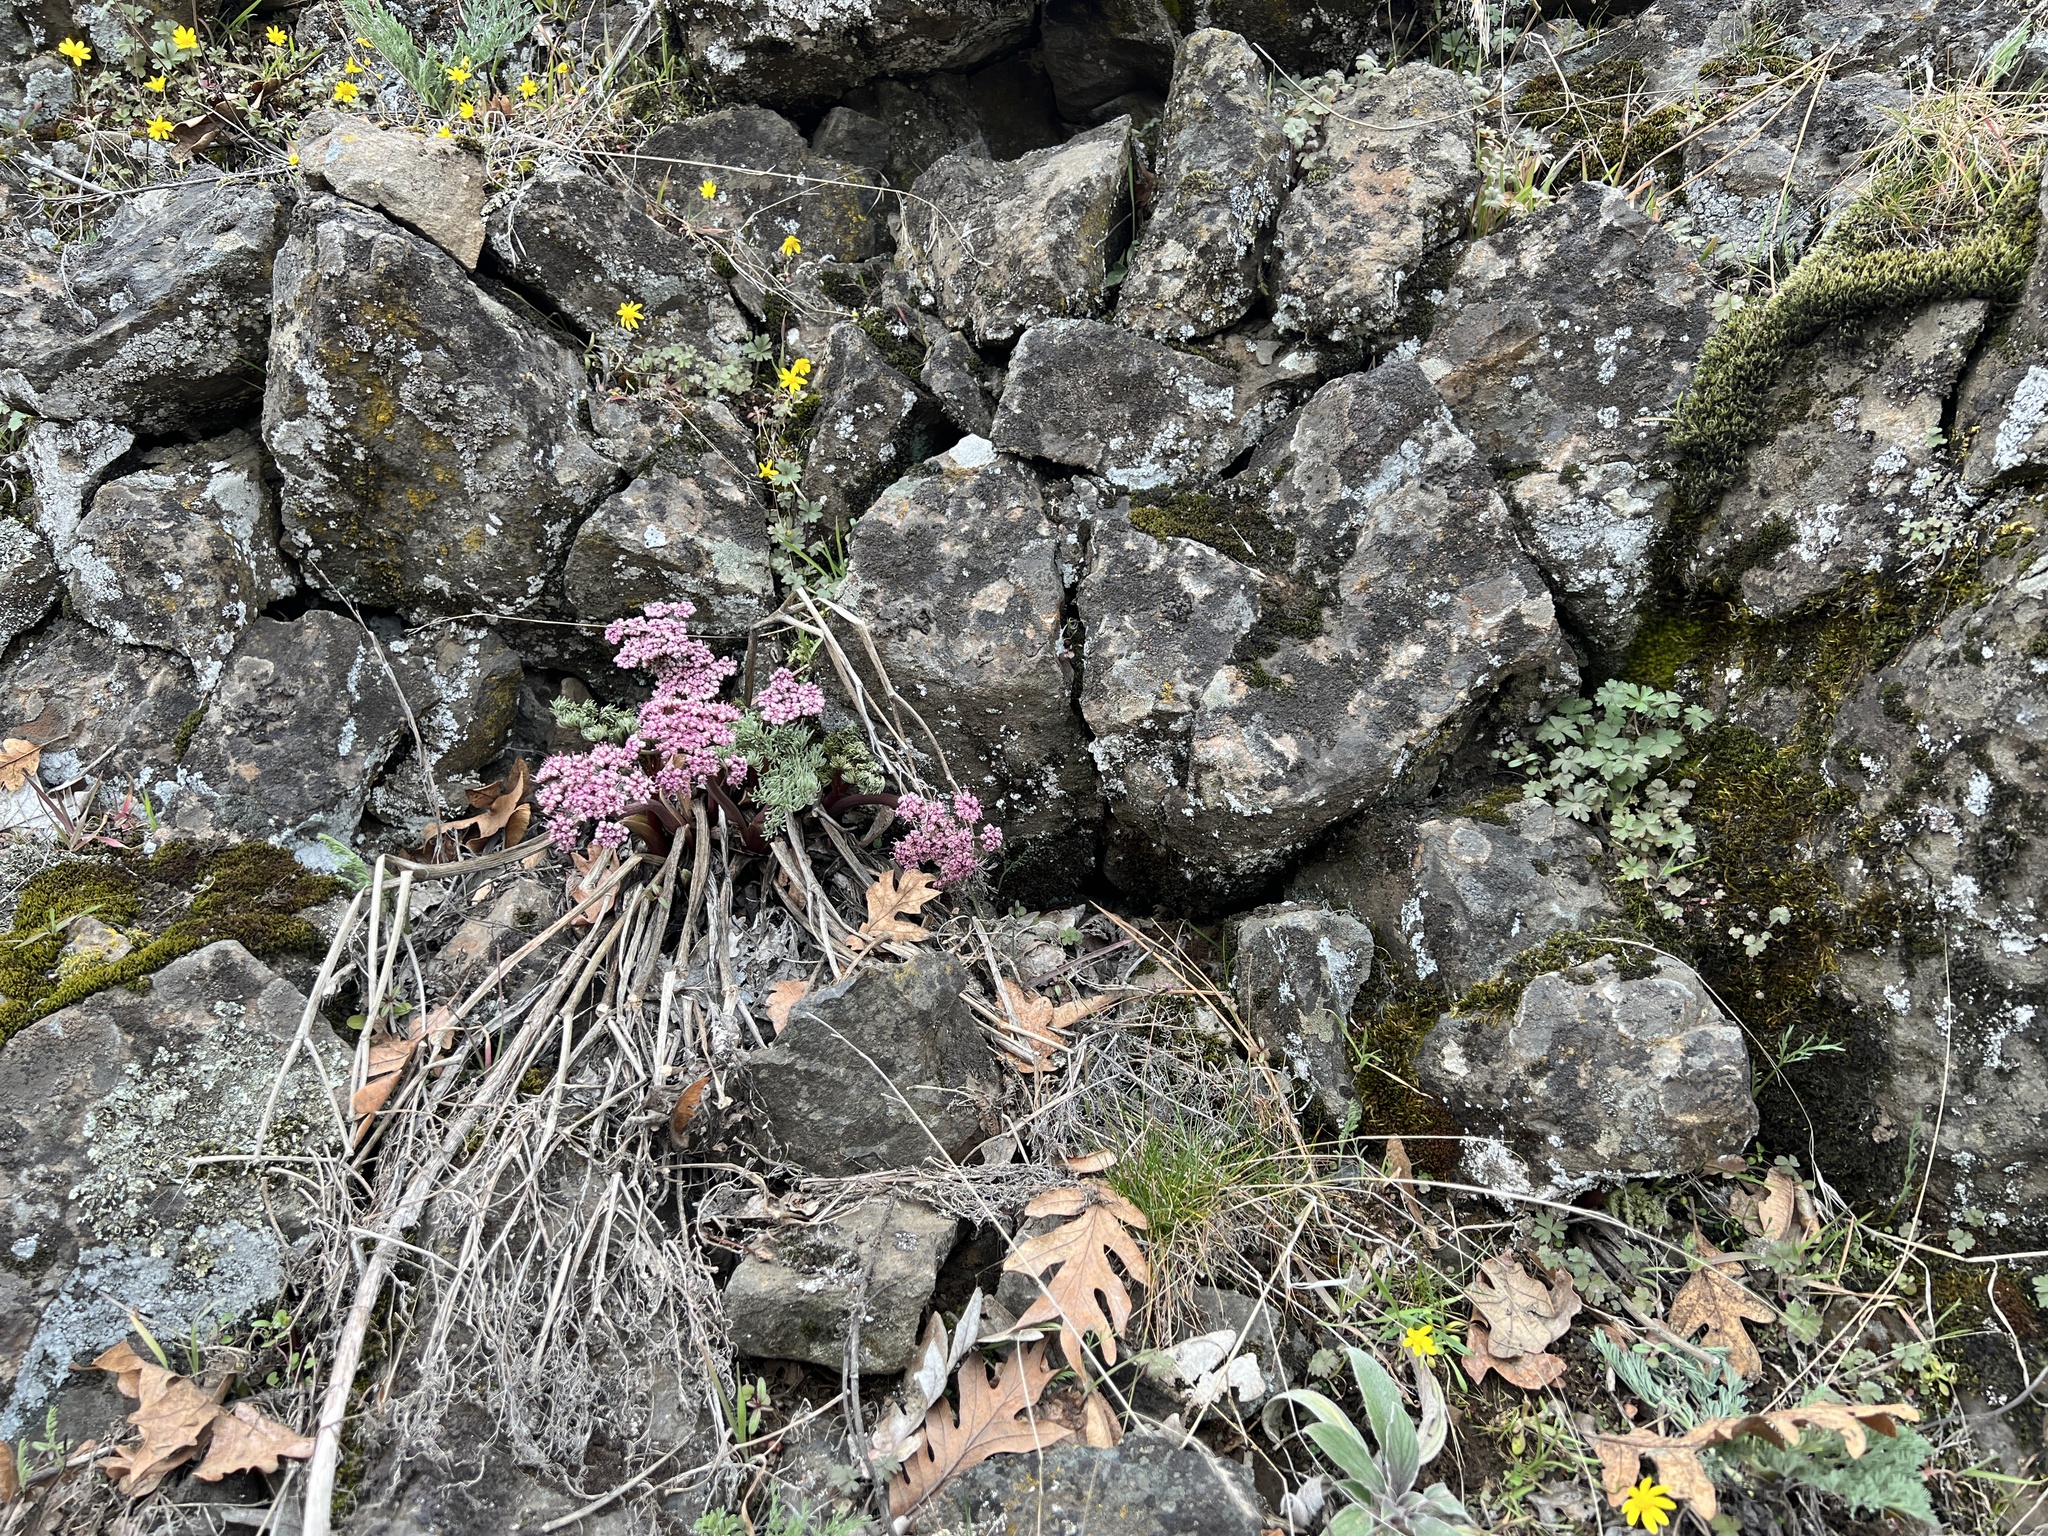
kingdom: Plantae
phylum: Tracheophyta
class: Magnoliopsida
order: Apiales
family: Apiaceae
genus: Lomatium
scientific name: Lomatium columbianum
